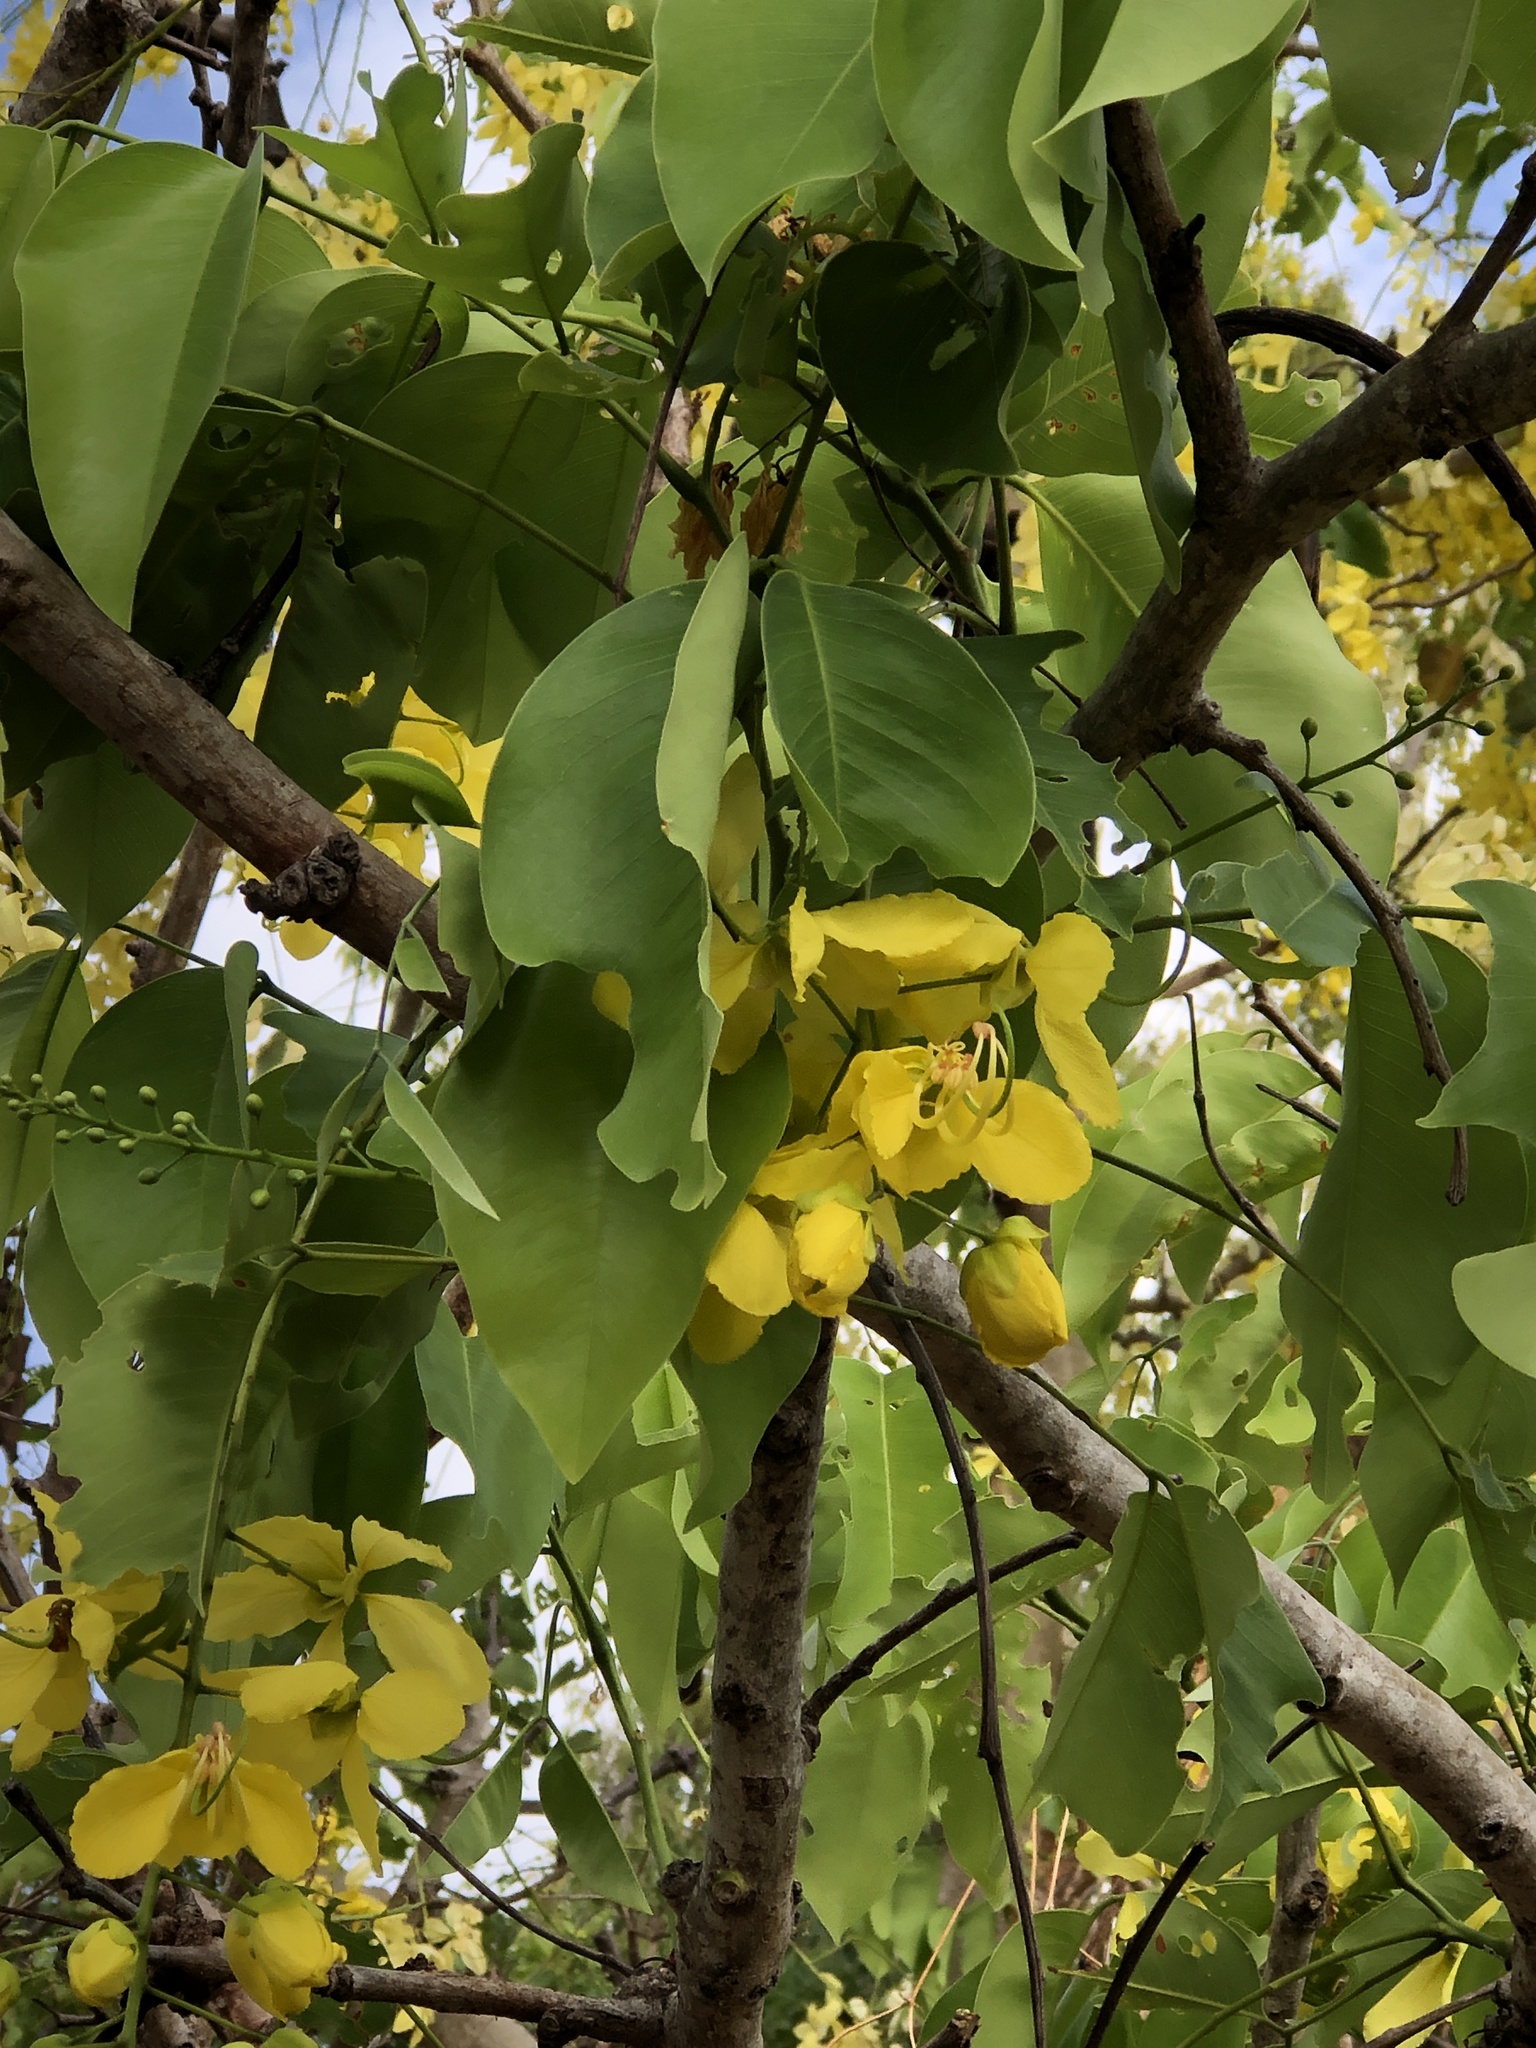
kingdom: Plantae
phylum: Tracheophyta
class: Magnoliopsida
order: Fabales
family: Fabaceae
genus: Cassia
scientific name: Cassia fistula
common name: Golden shower
